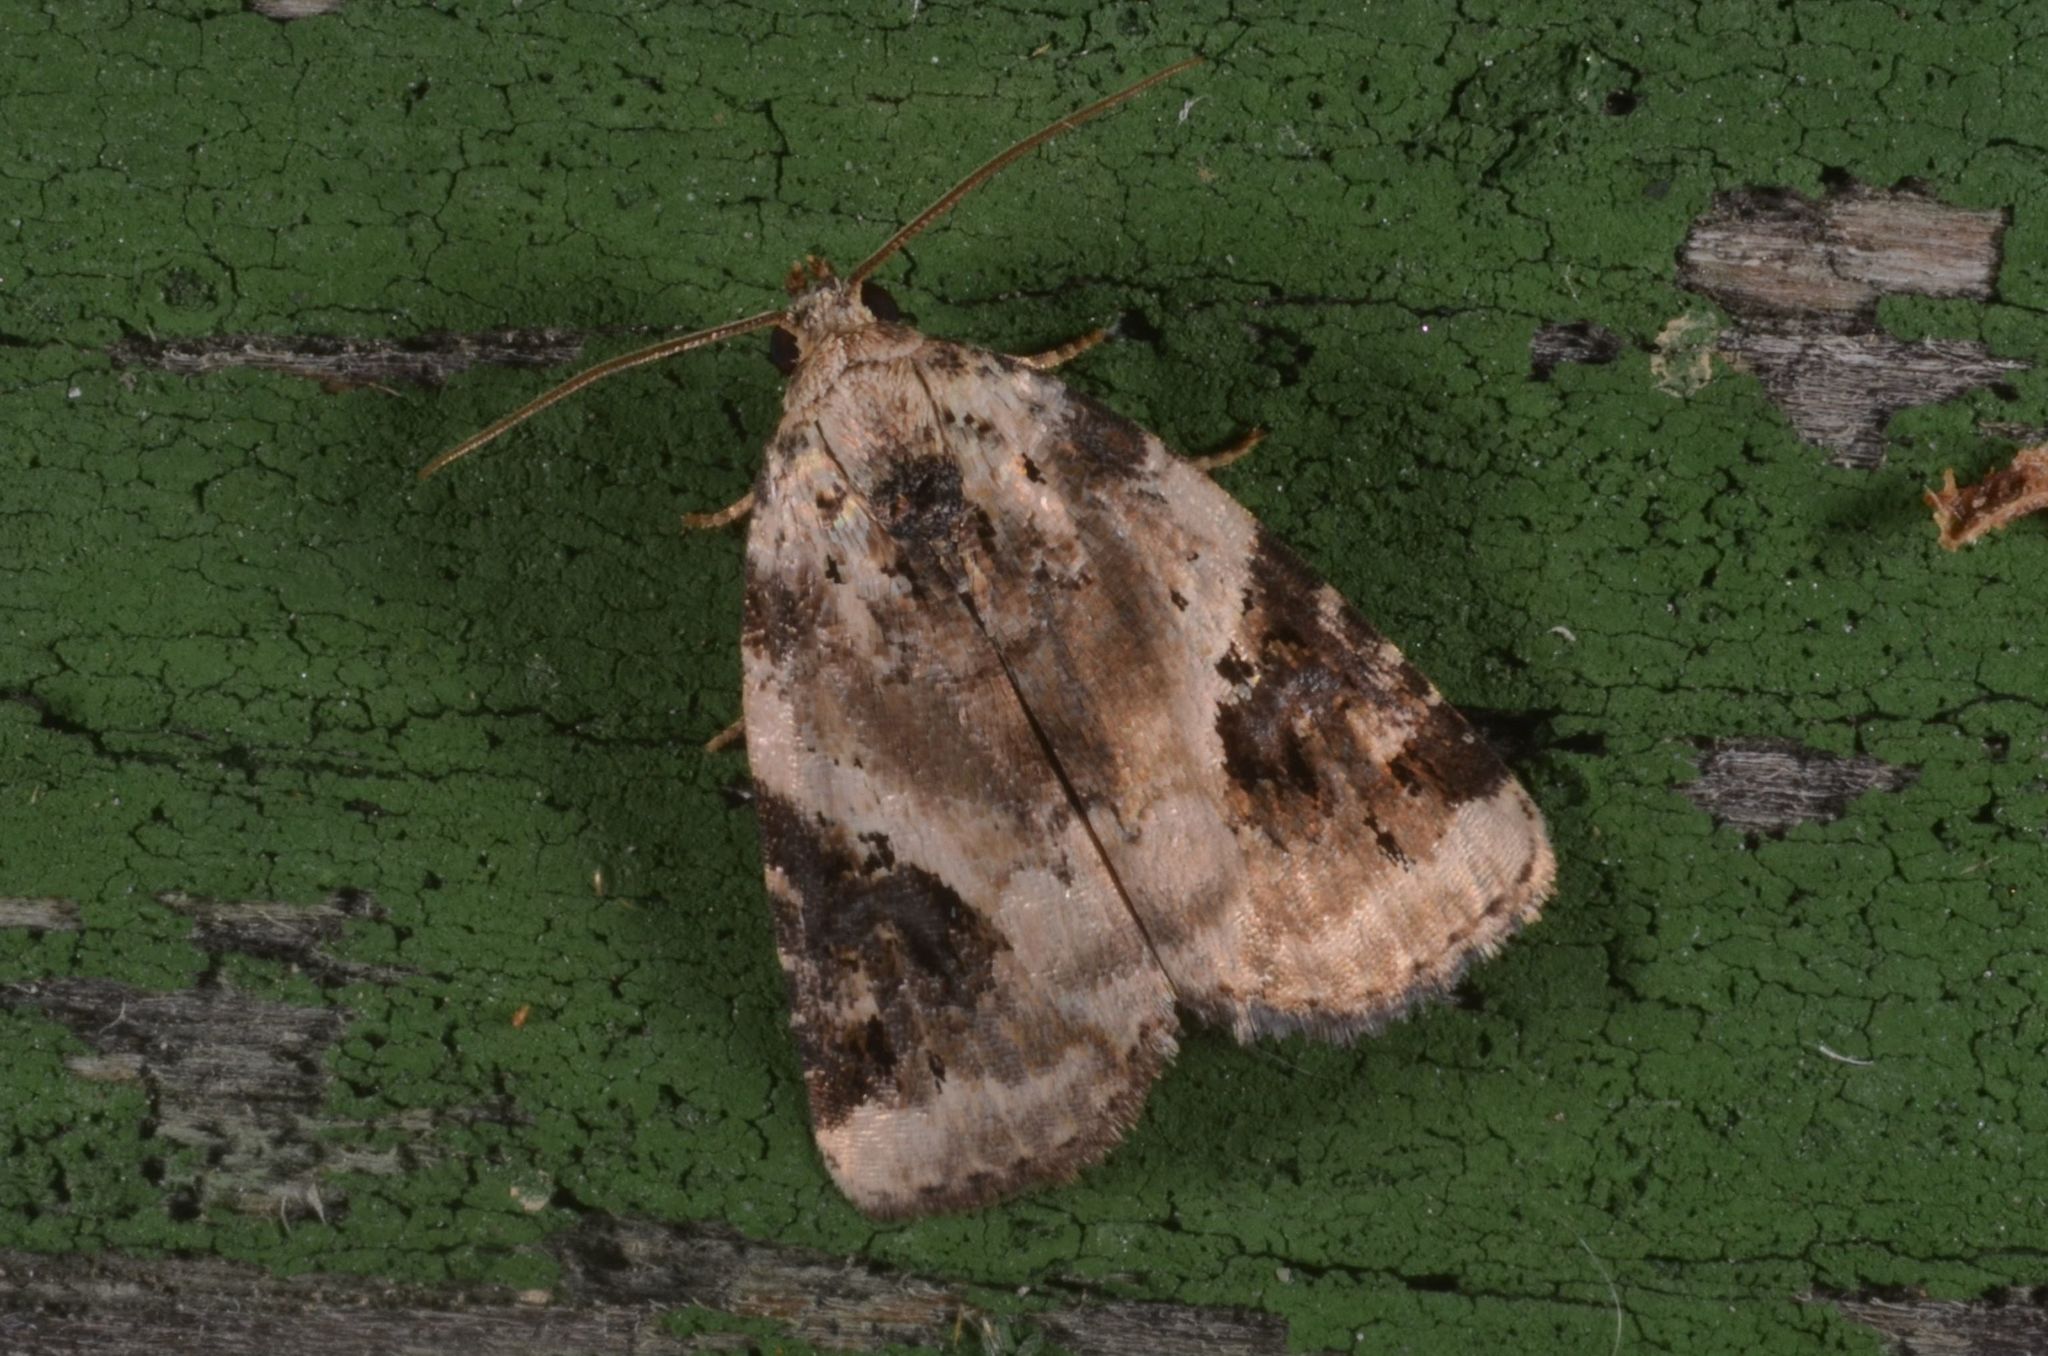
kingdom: Animalia
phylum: Arthropoda
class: Insecta
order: Lepidoptera
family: Noctuidae
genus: Pseudeustrotia
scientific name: Pseudeustrotia candidula
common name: Shining marbled
